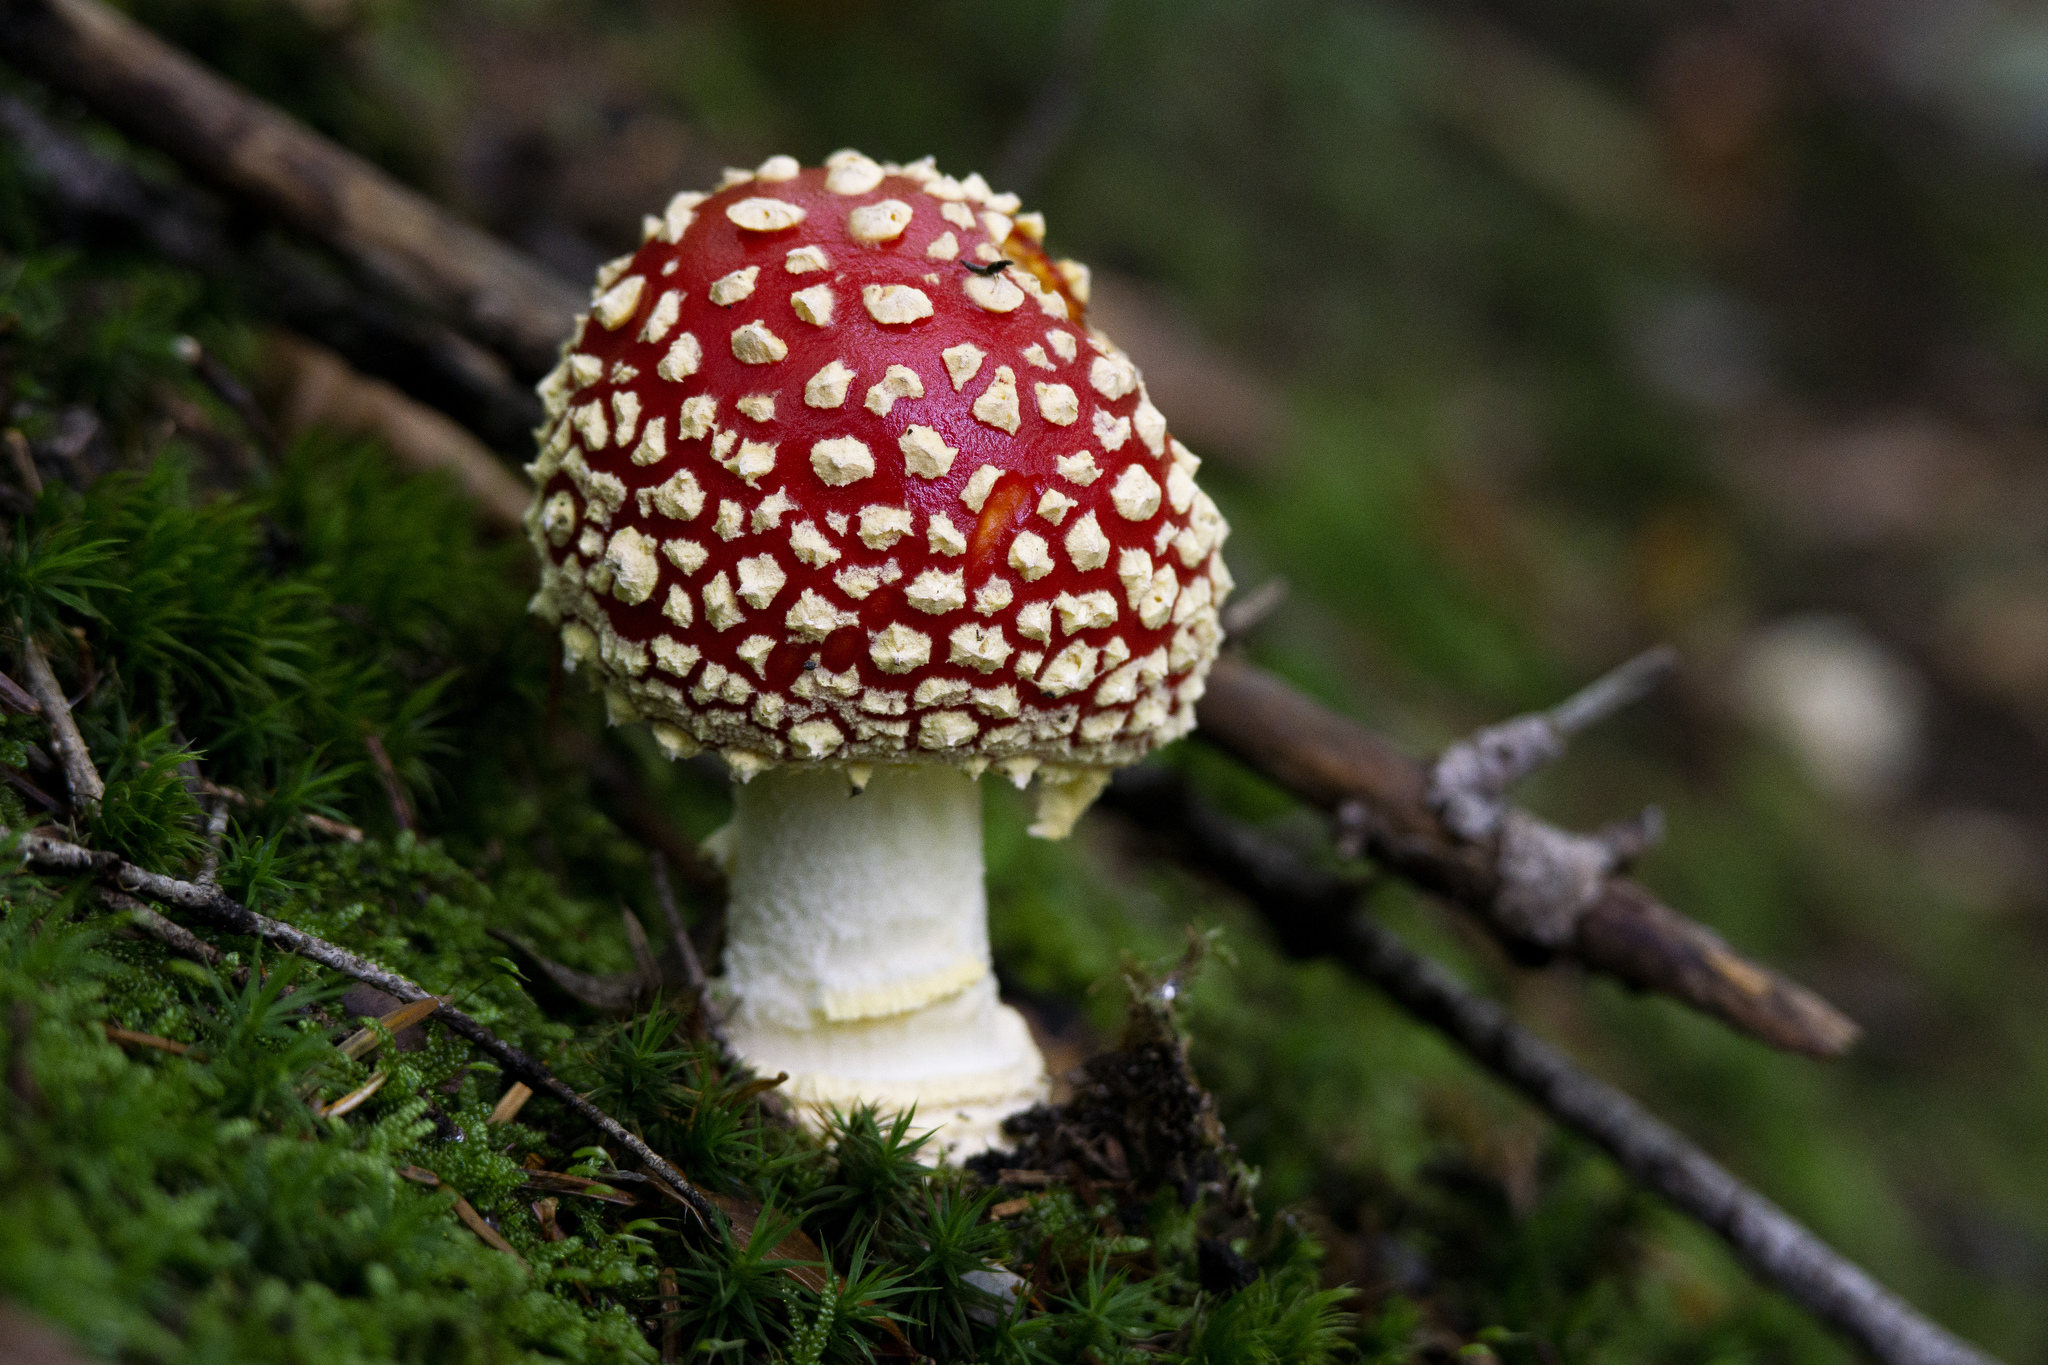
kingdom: Fungi
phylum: Basidiomycota
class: Agaricomycetes
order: Agaricales
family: Amanitaceae
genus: Amanita
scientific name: Amanita muscaria
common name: Fly agaric
